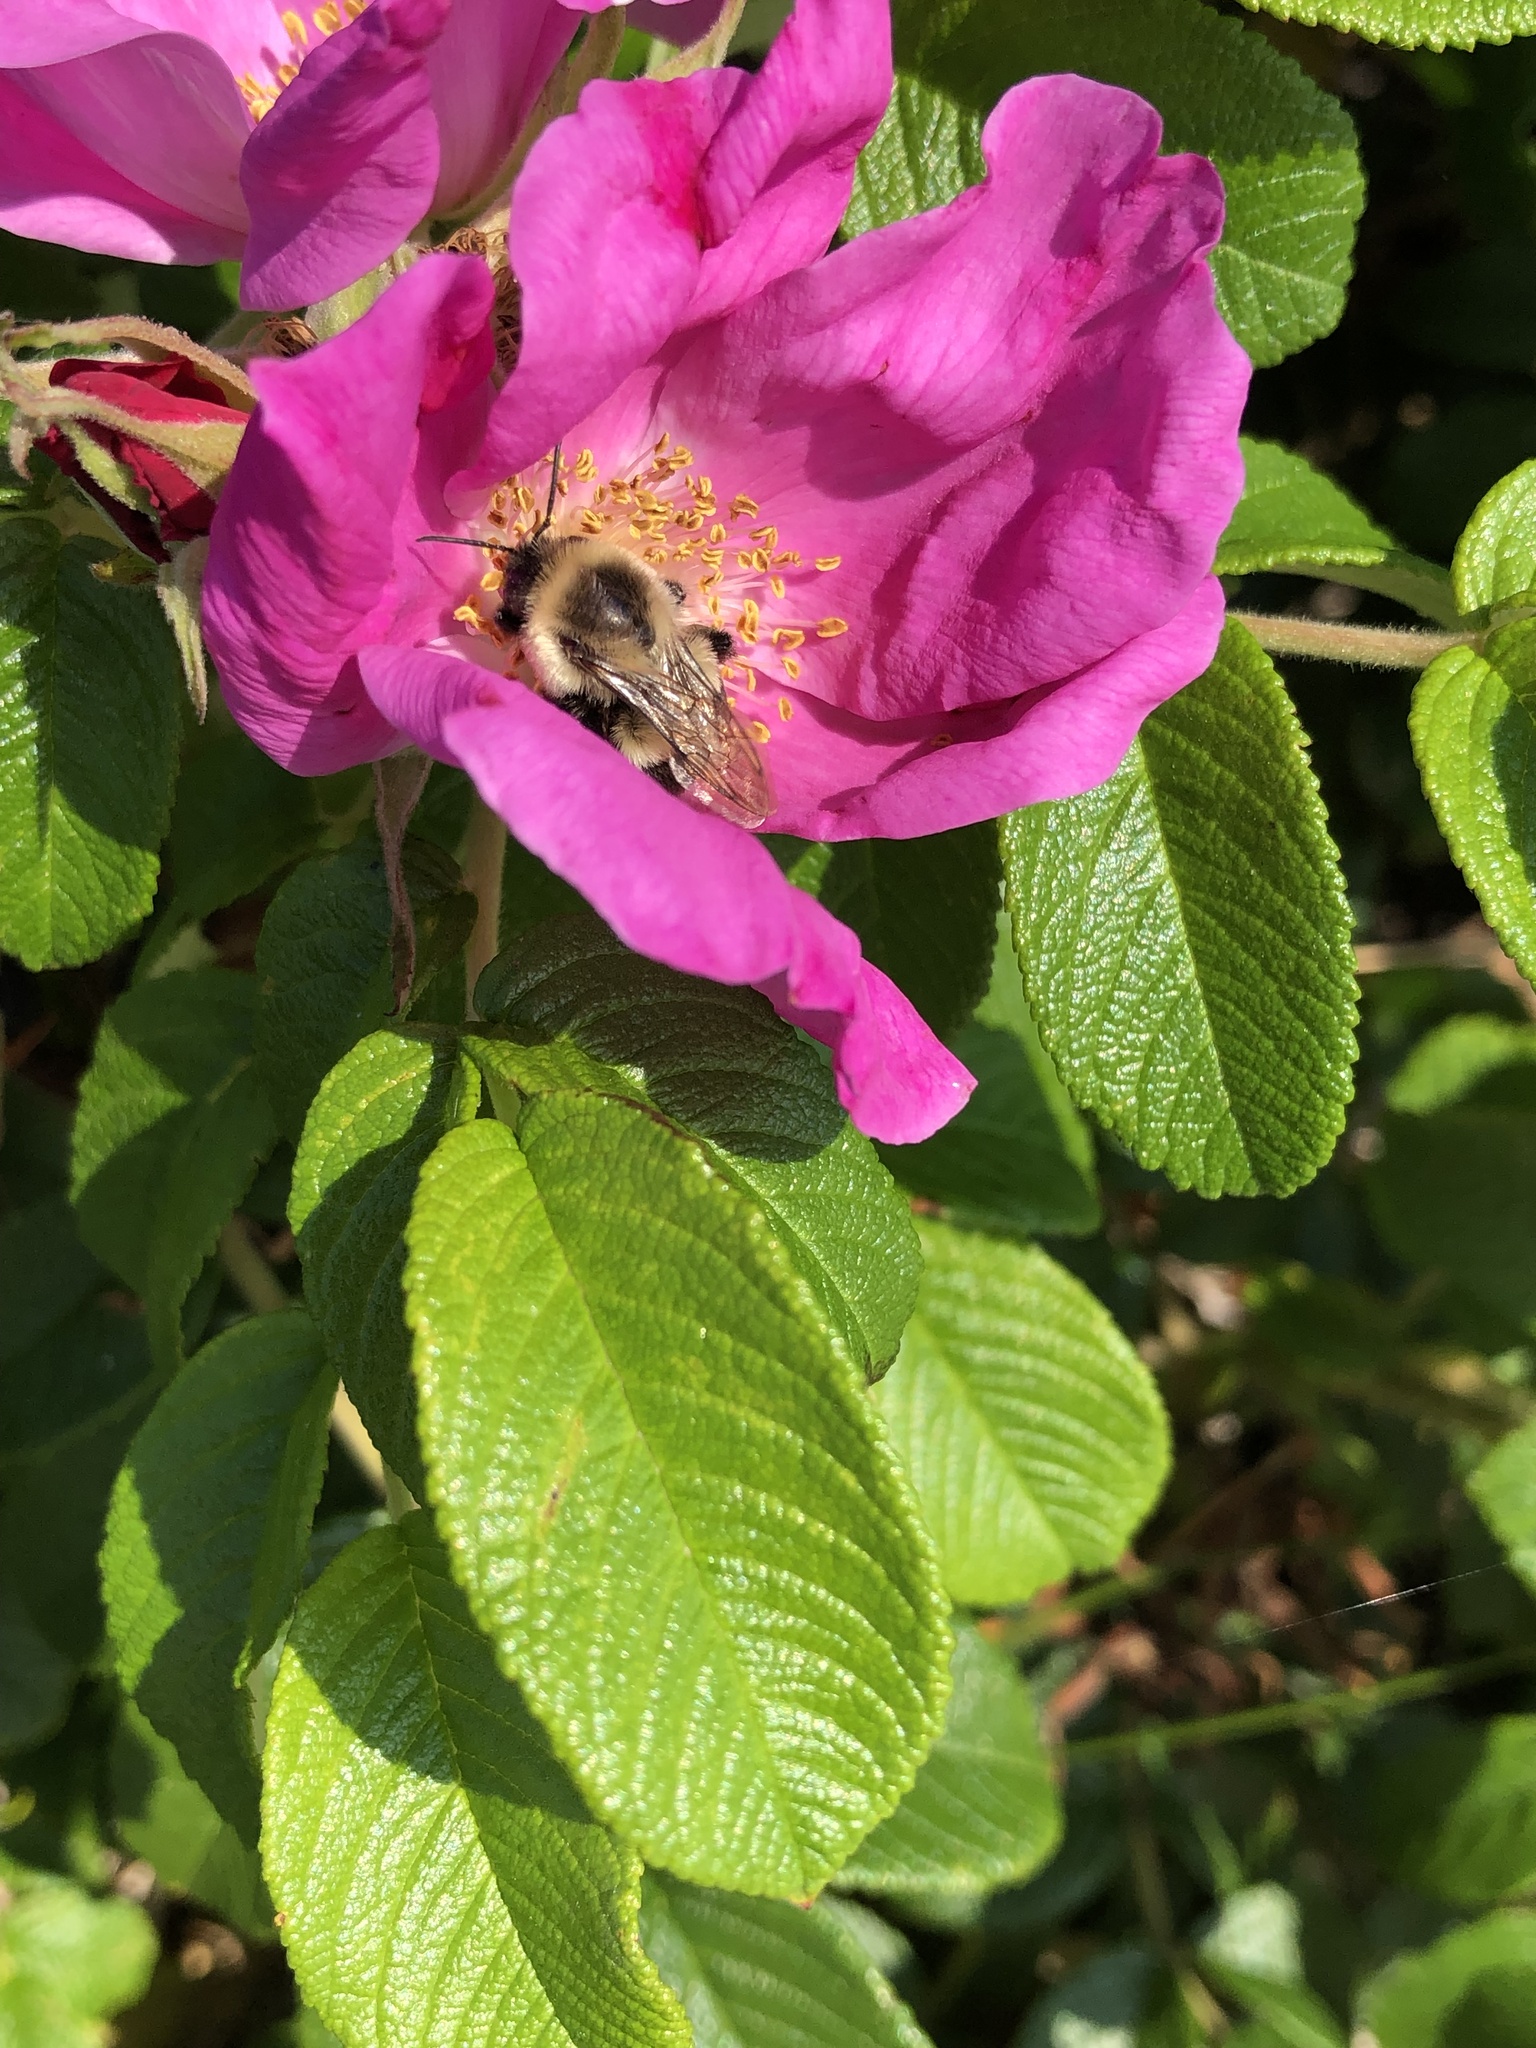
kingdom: Animalia
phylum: Arthropoda
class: Insecta
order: Hymenoptera
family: Apidae
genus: Bombus
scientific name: Bombus impatiens
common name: Common eastern bumble bee
